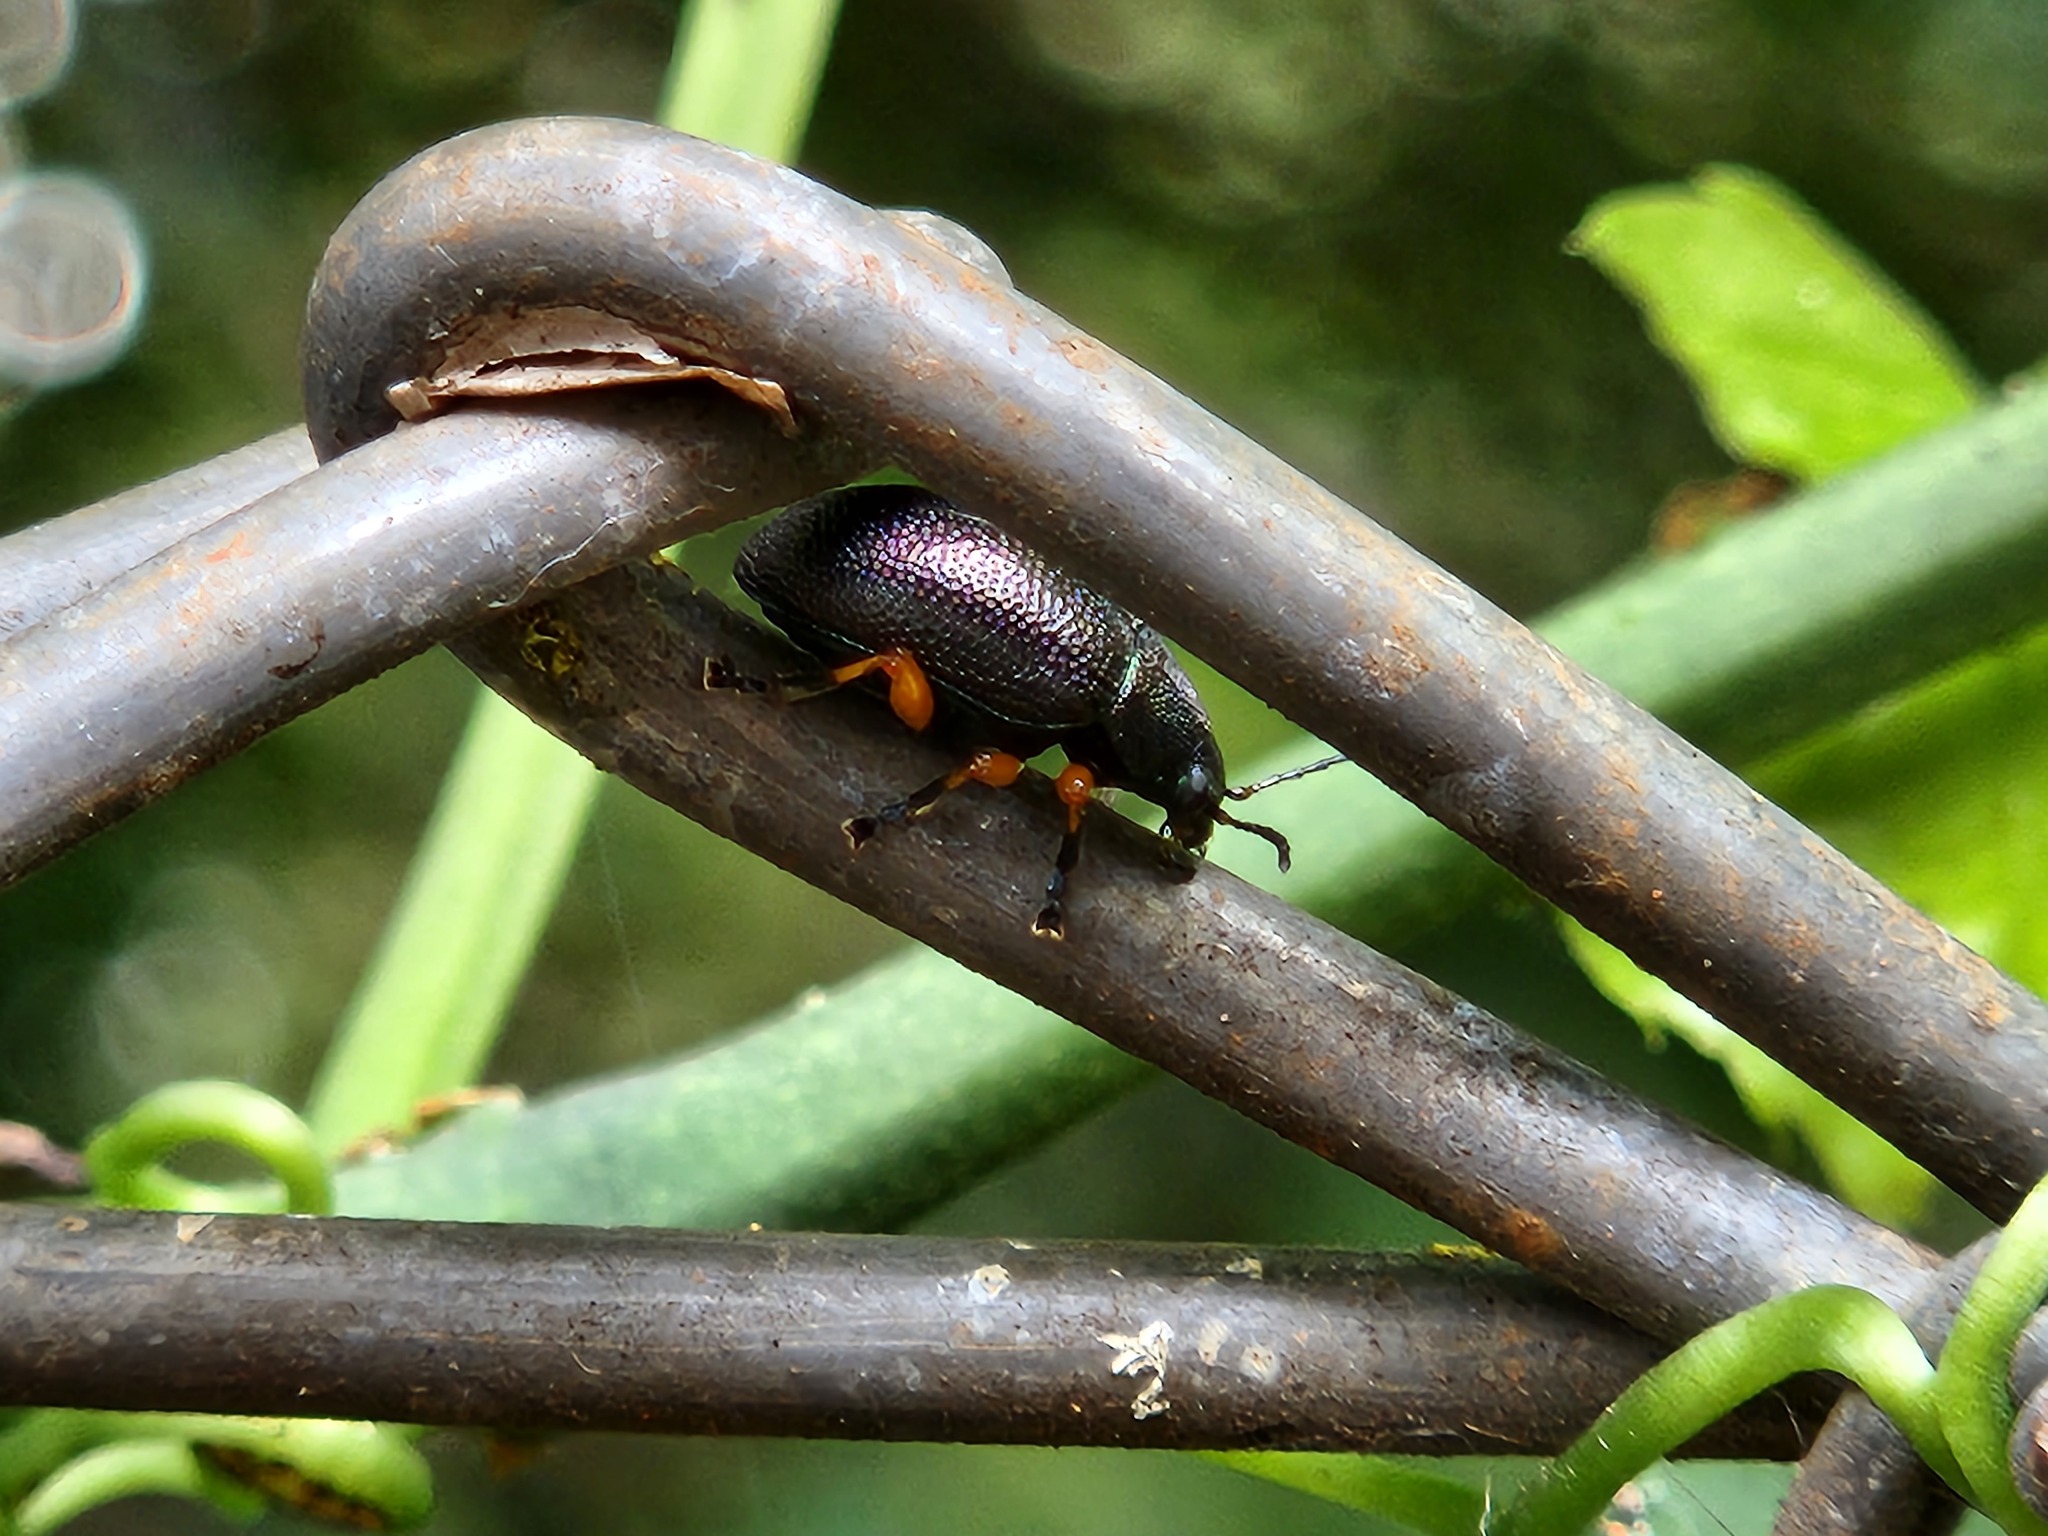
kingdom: Animalia
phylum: Arthropoda
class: Insecta
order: Coleoptera
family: Chrysomelidae
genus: Nodocolaspis
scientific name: Nodocolaspis
